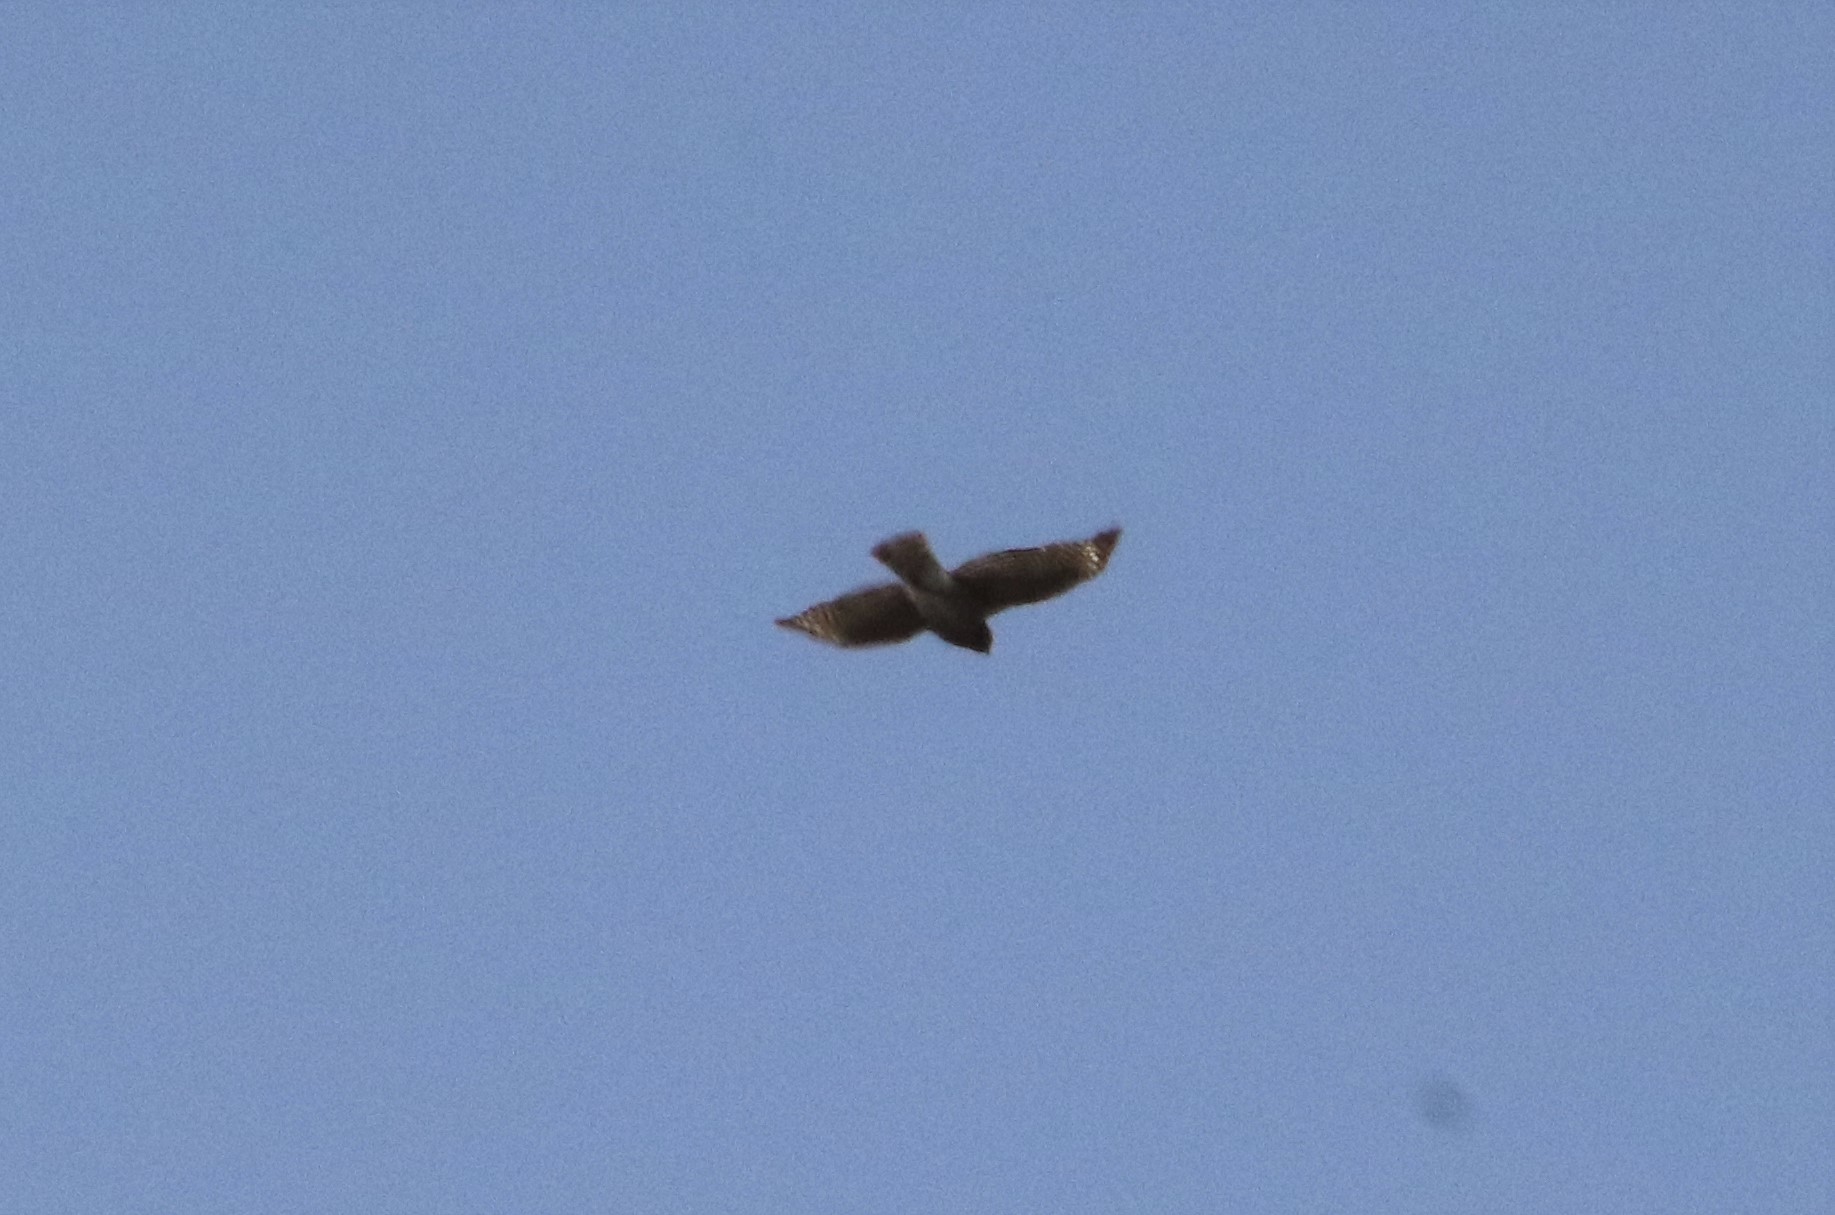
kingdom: Animalia
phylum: Chordata
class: Aves
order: Accipitriformes
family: Accipitridae
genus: Buteo
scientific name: Buteo lineatus
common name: Red-shouldered hawk
